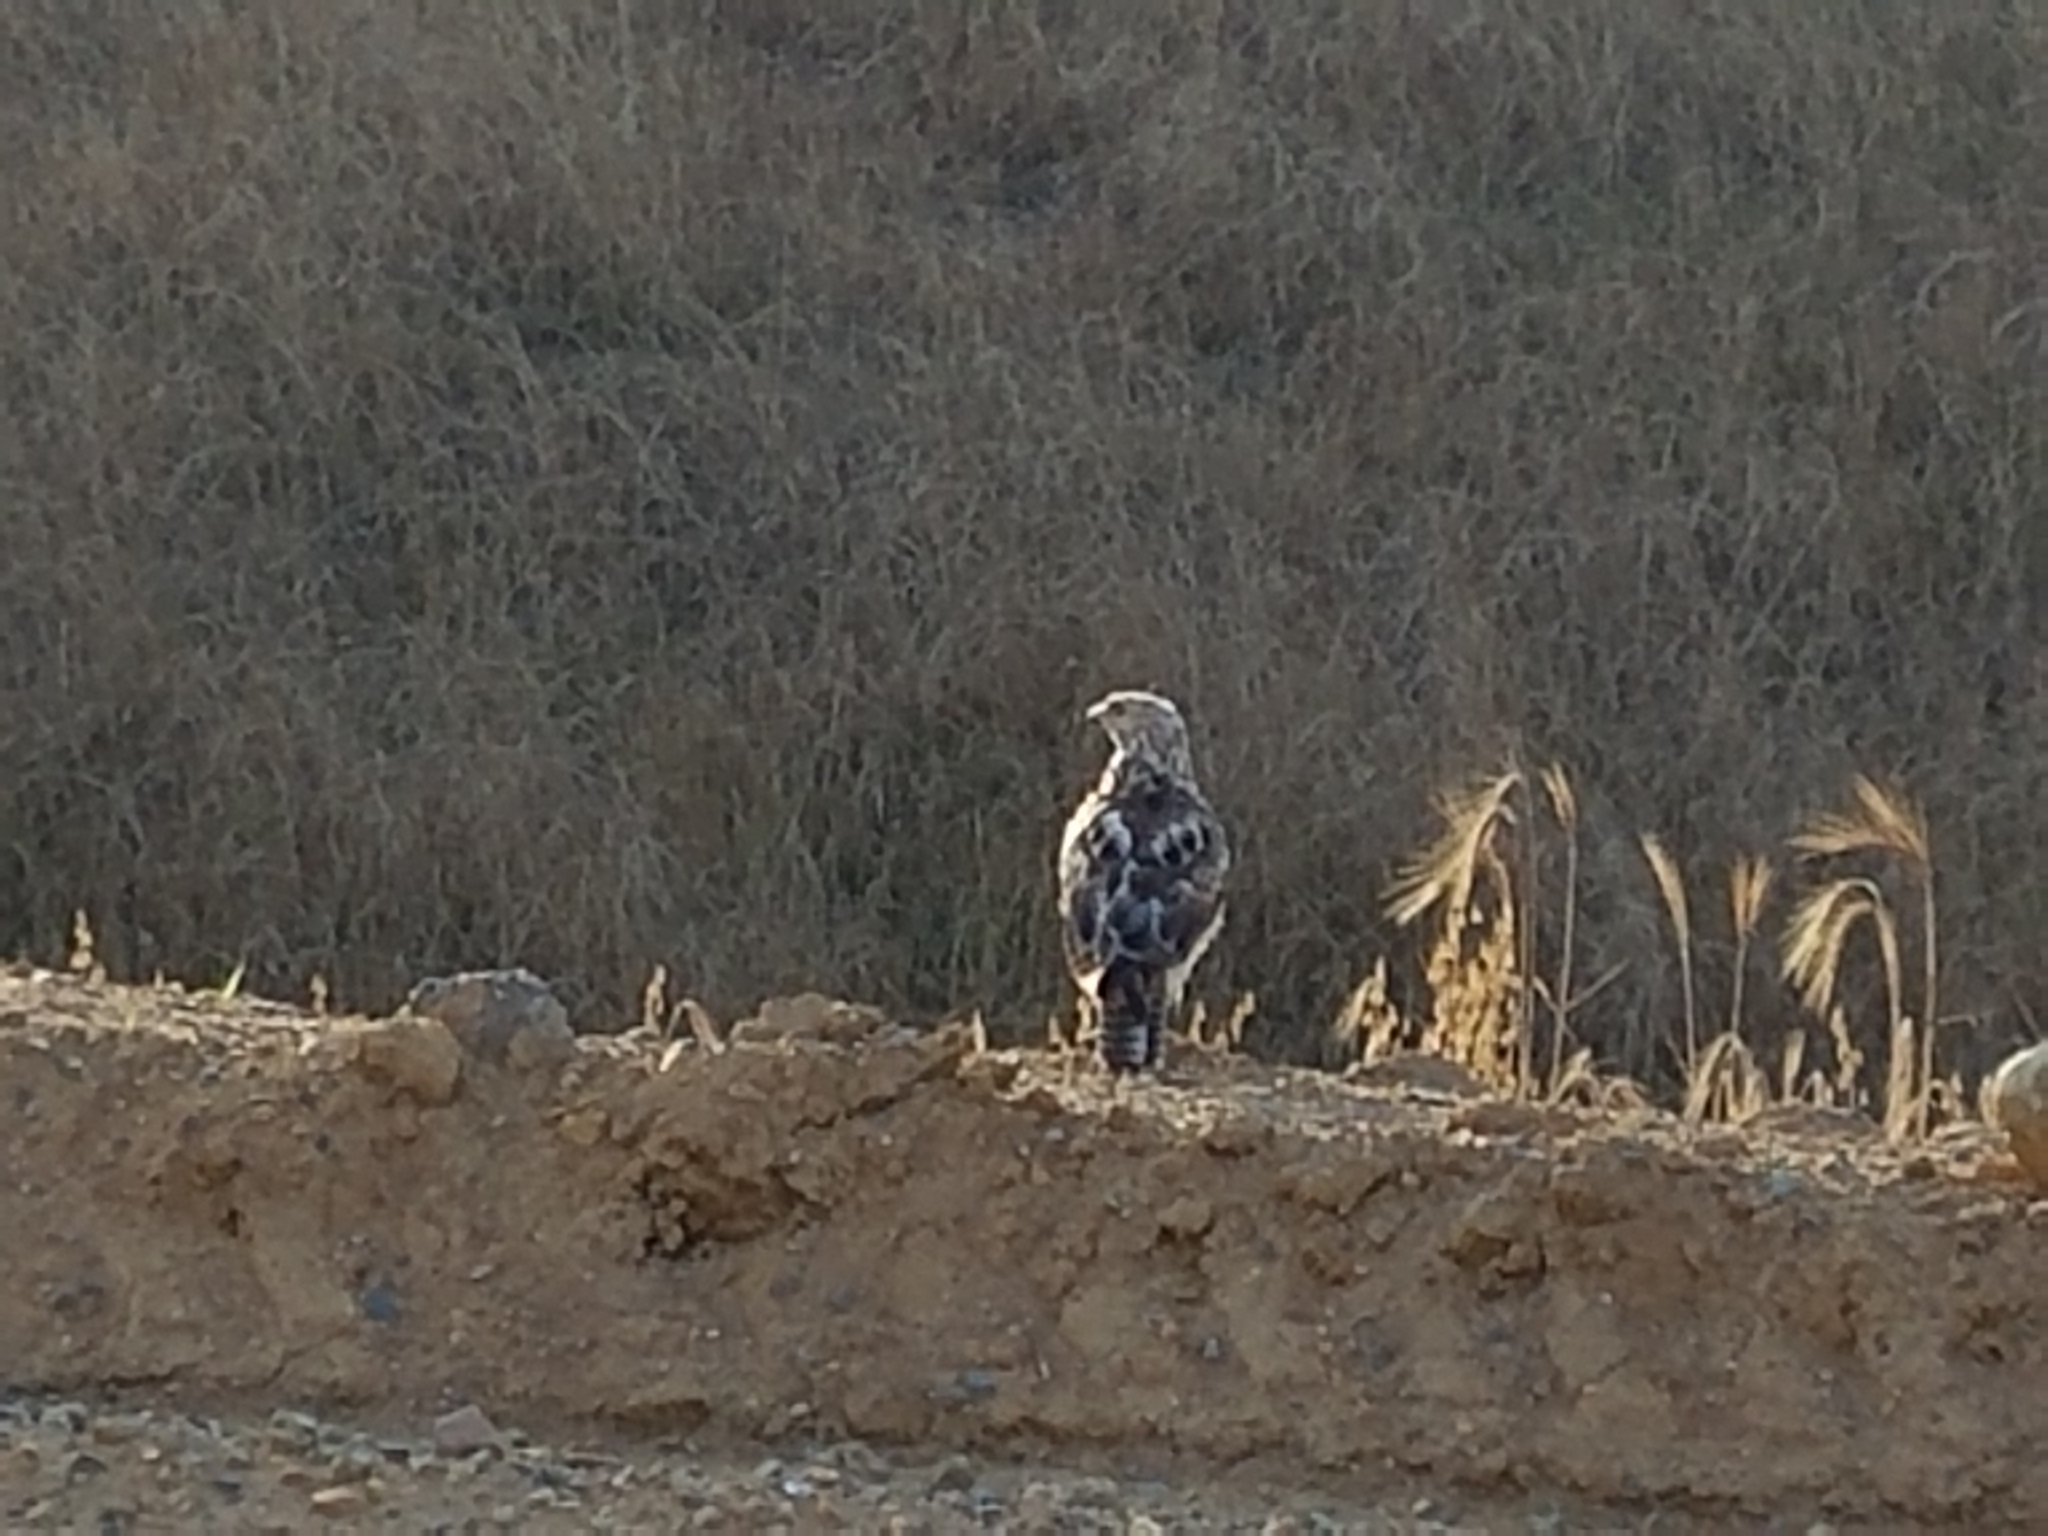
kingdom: Animalia
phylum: Chordata
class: Aves
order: Accipitriformes
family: Accipitridae
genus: Buteo
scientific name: Buteo jamaicensis
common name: Red-tailed hawk
